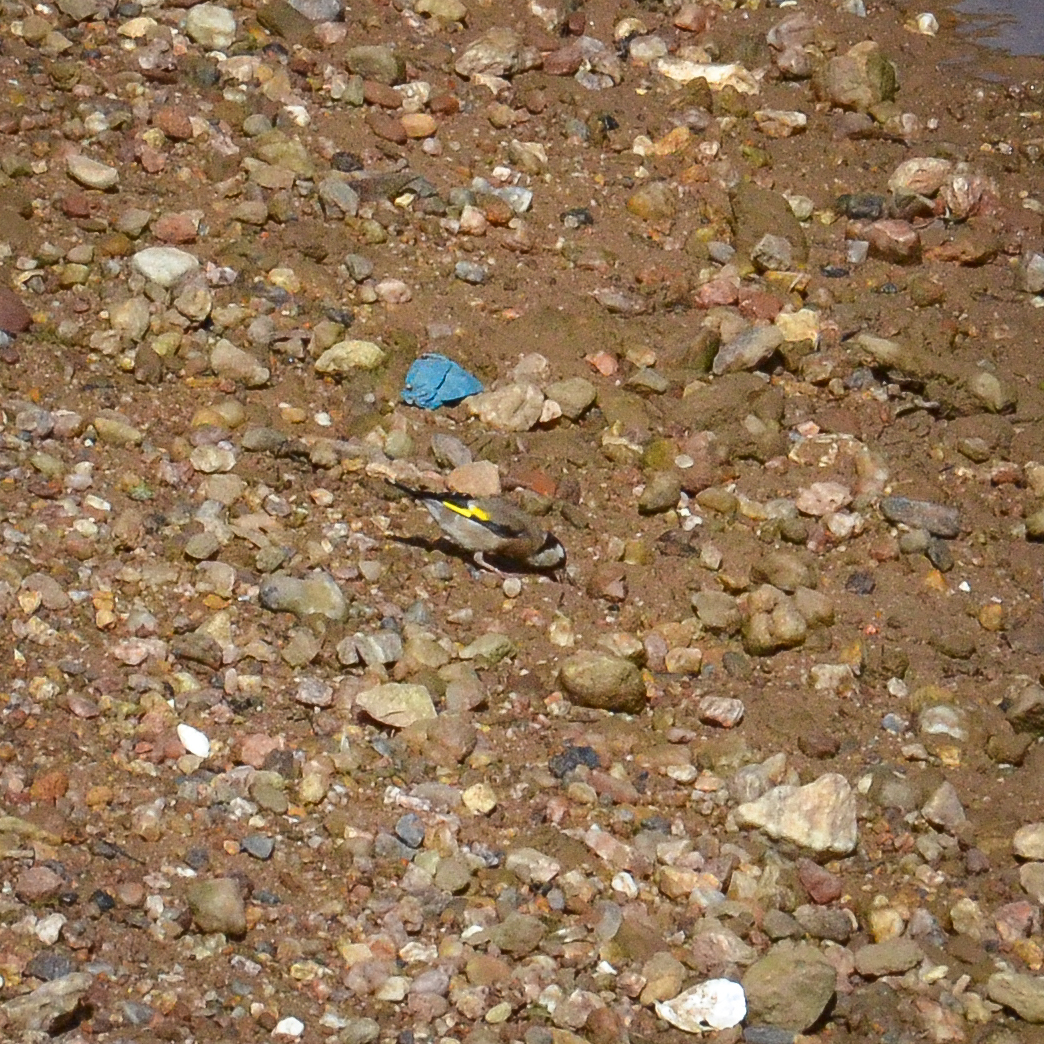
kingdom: Animalia
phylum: Chordata
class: Aves
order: Passeriformes
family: Fringillidae
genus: Carduelis
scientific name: Carduelis carduelis
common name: European goldfinch
